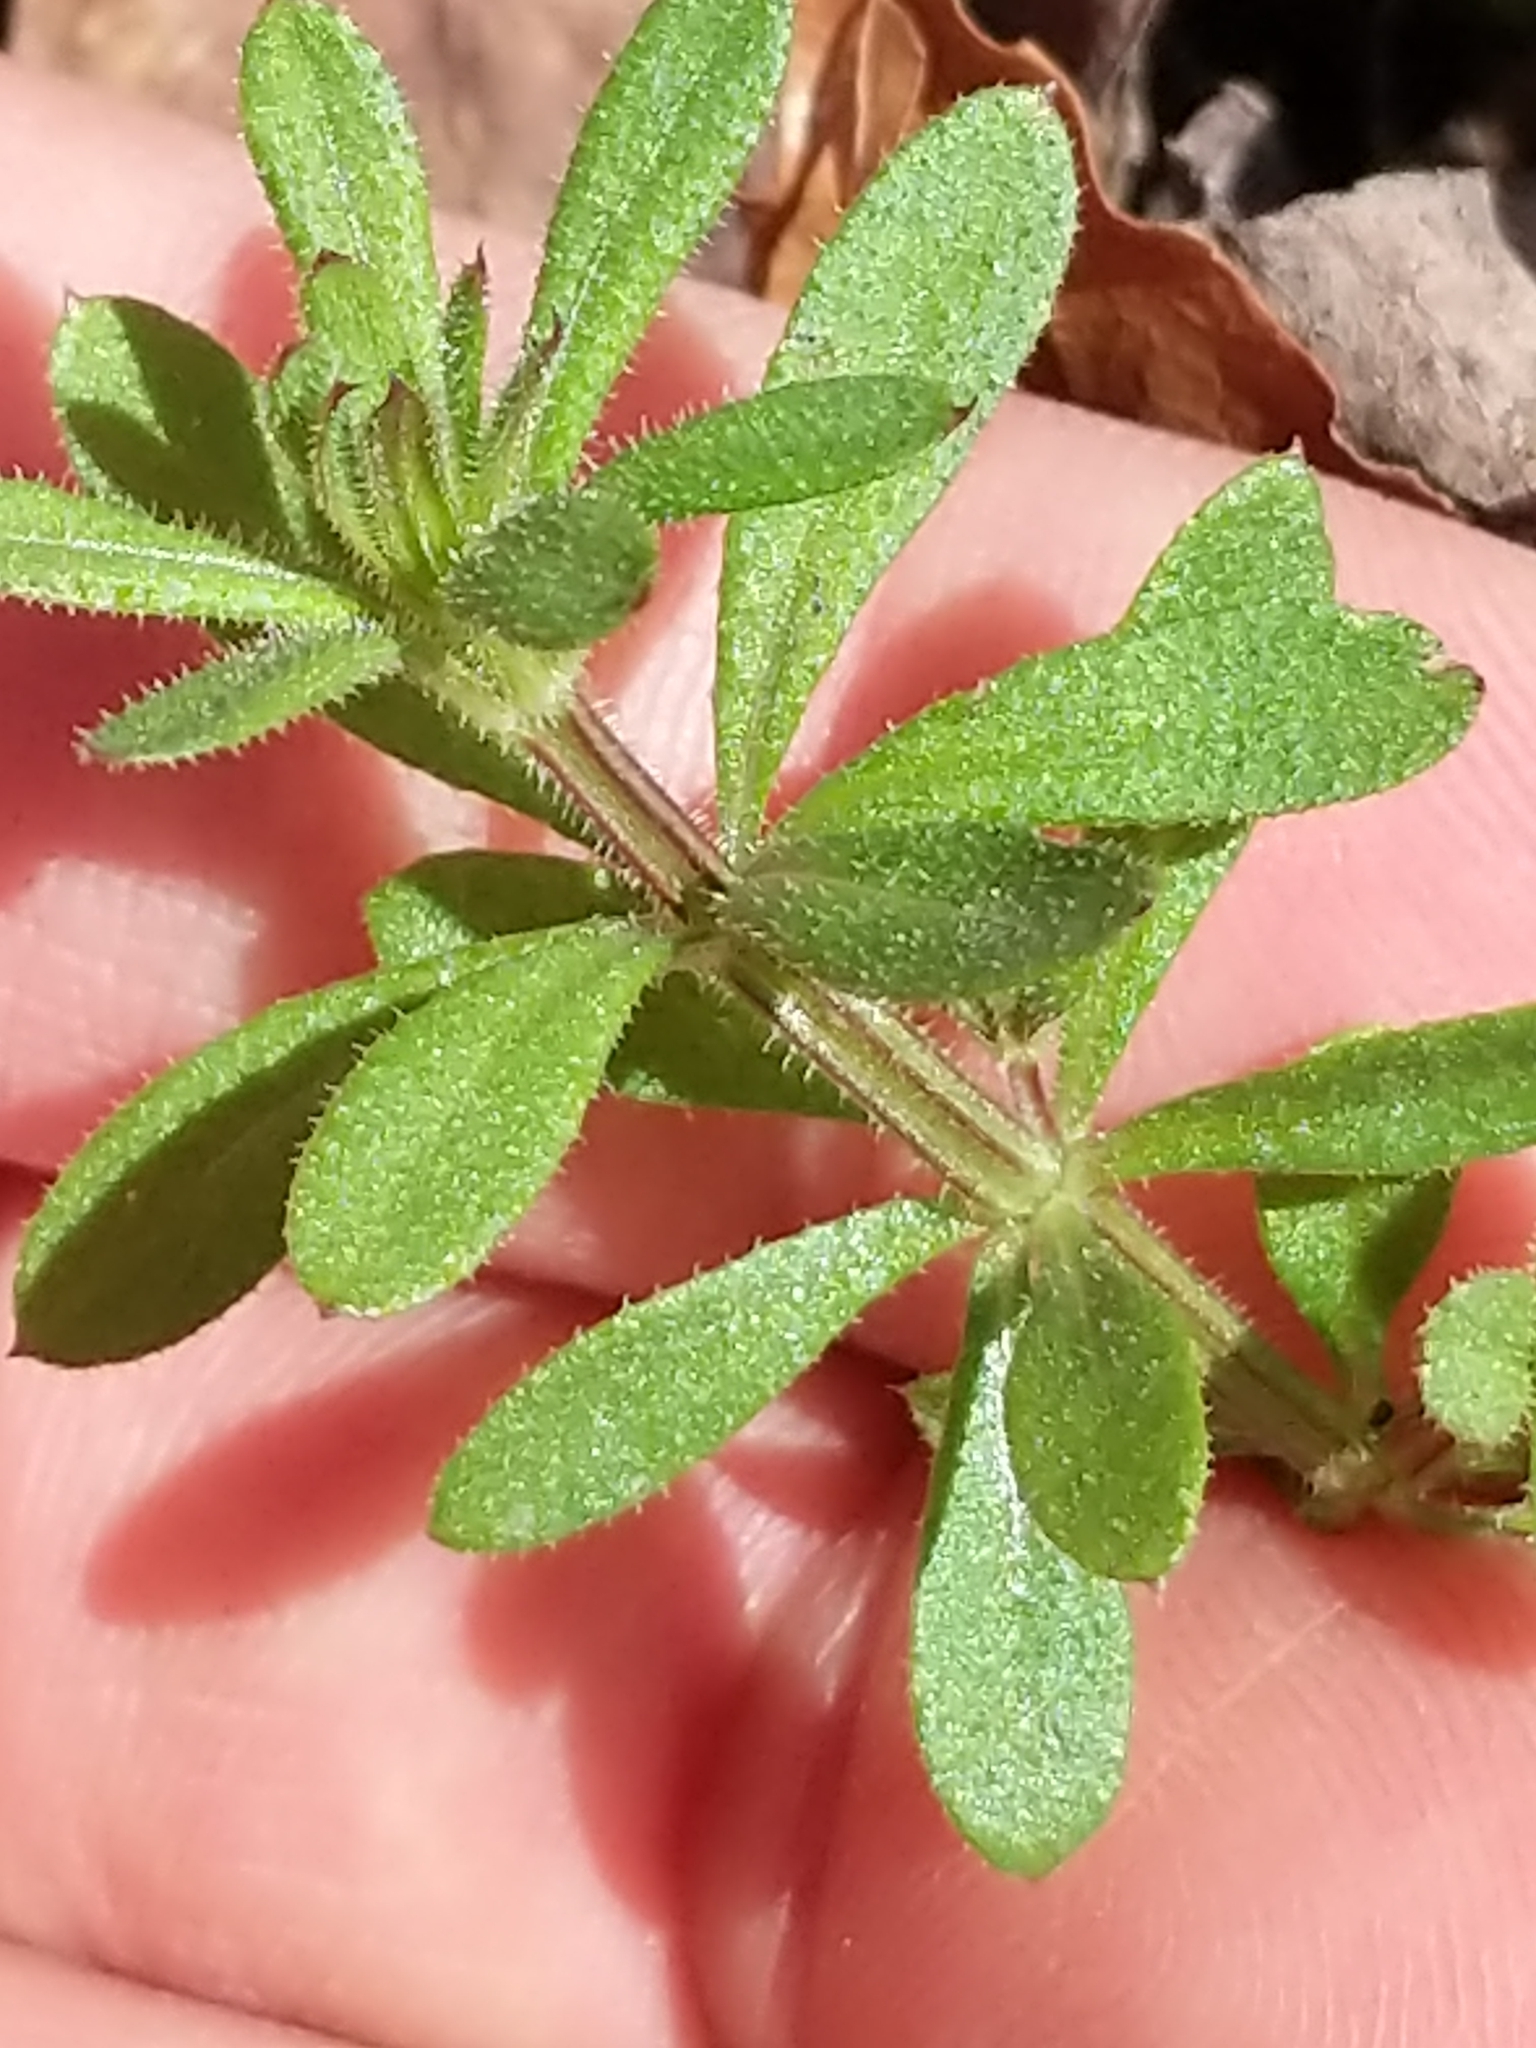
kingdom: Plantae
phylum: Tracheophyta
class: Magnoliopsida
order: Gentianales
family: Rubiaceae
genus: Galium
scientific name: Galium aparine
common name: Cleavers
